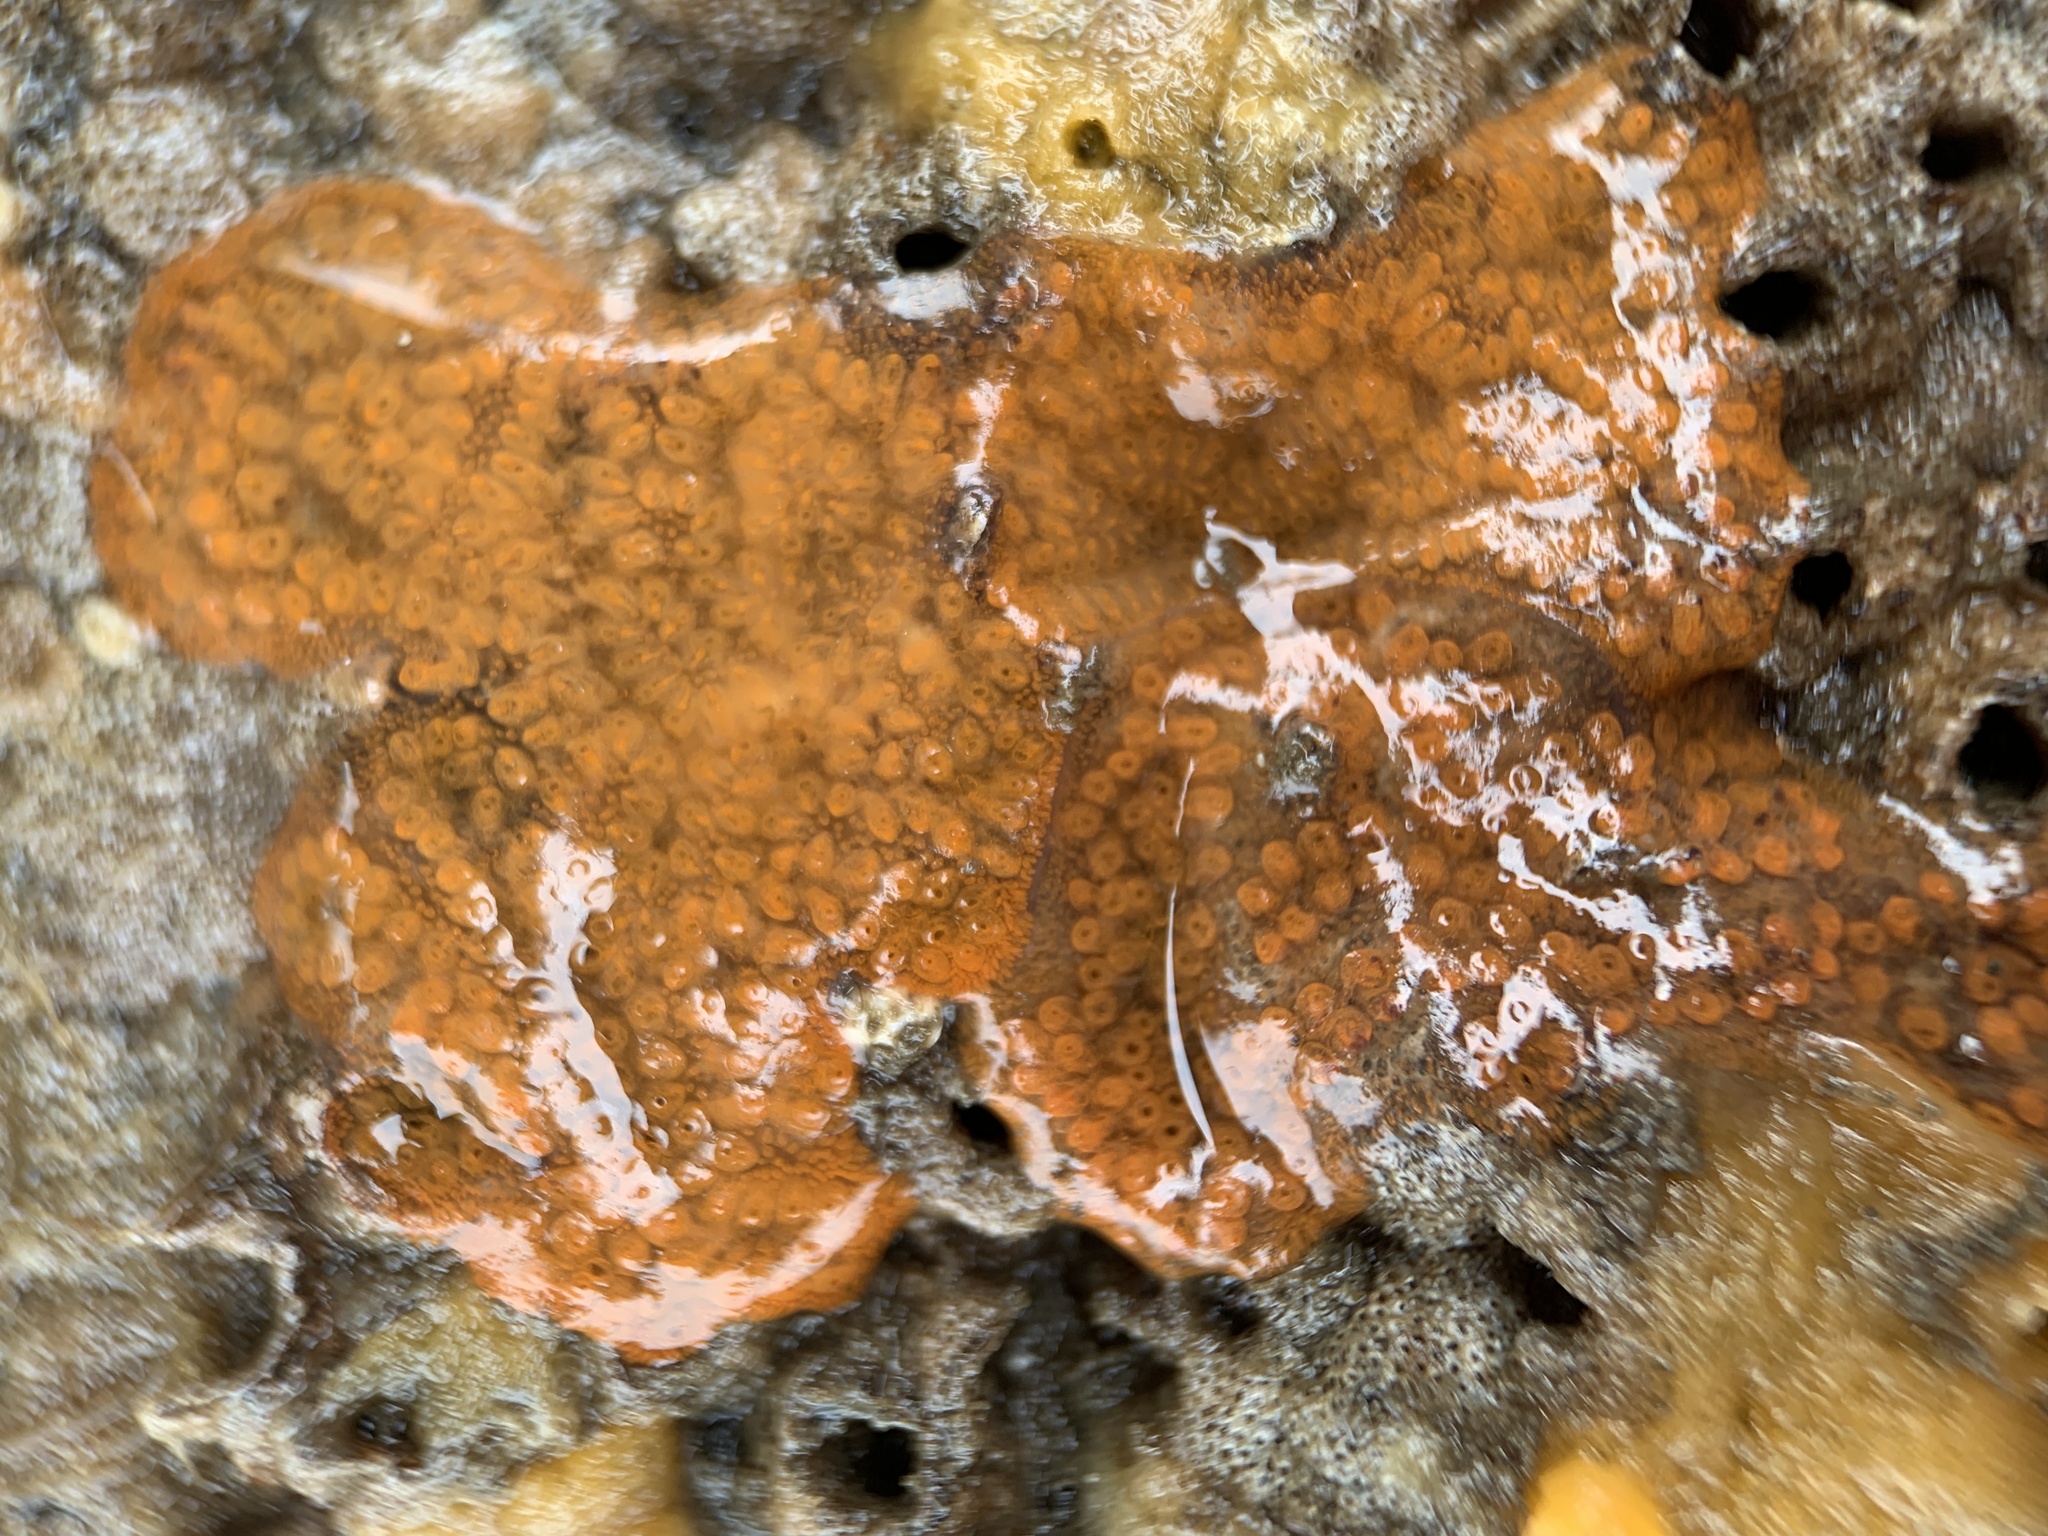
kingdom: Animalia
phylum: Chordata
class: Ascidiacea
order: Stolidobranchia
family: Styelidae
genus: Botrylloides
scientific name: Botrylloides violaceus
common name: Colonial sea squirt
